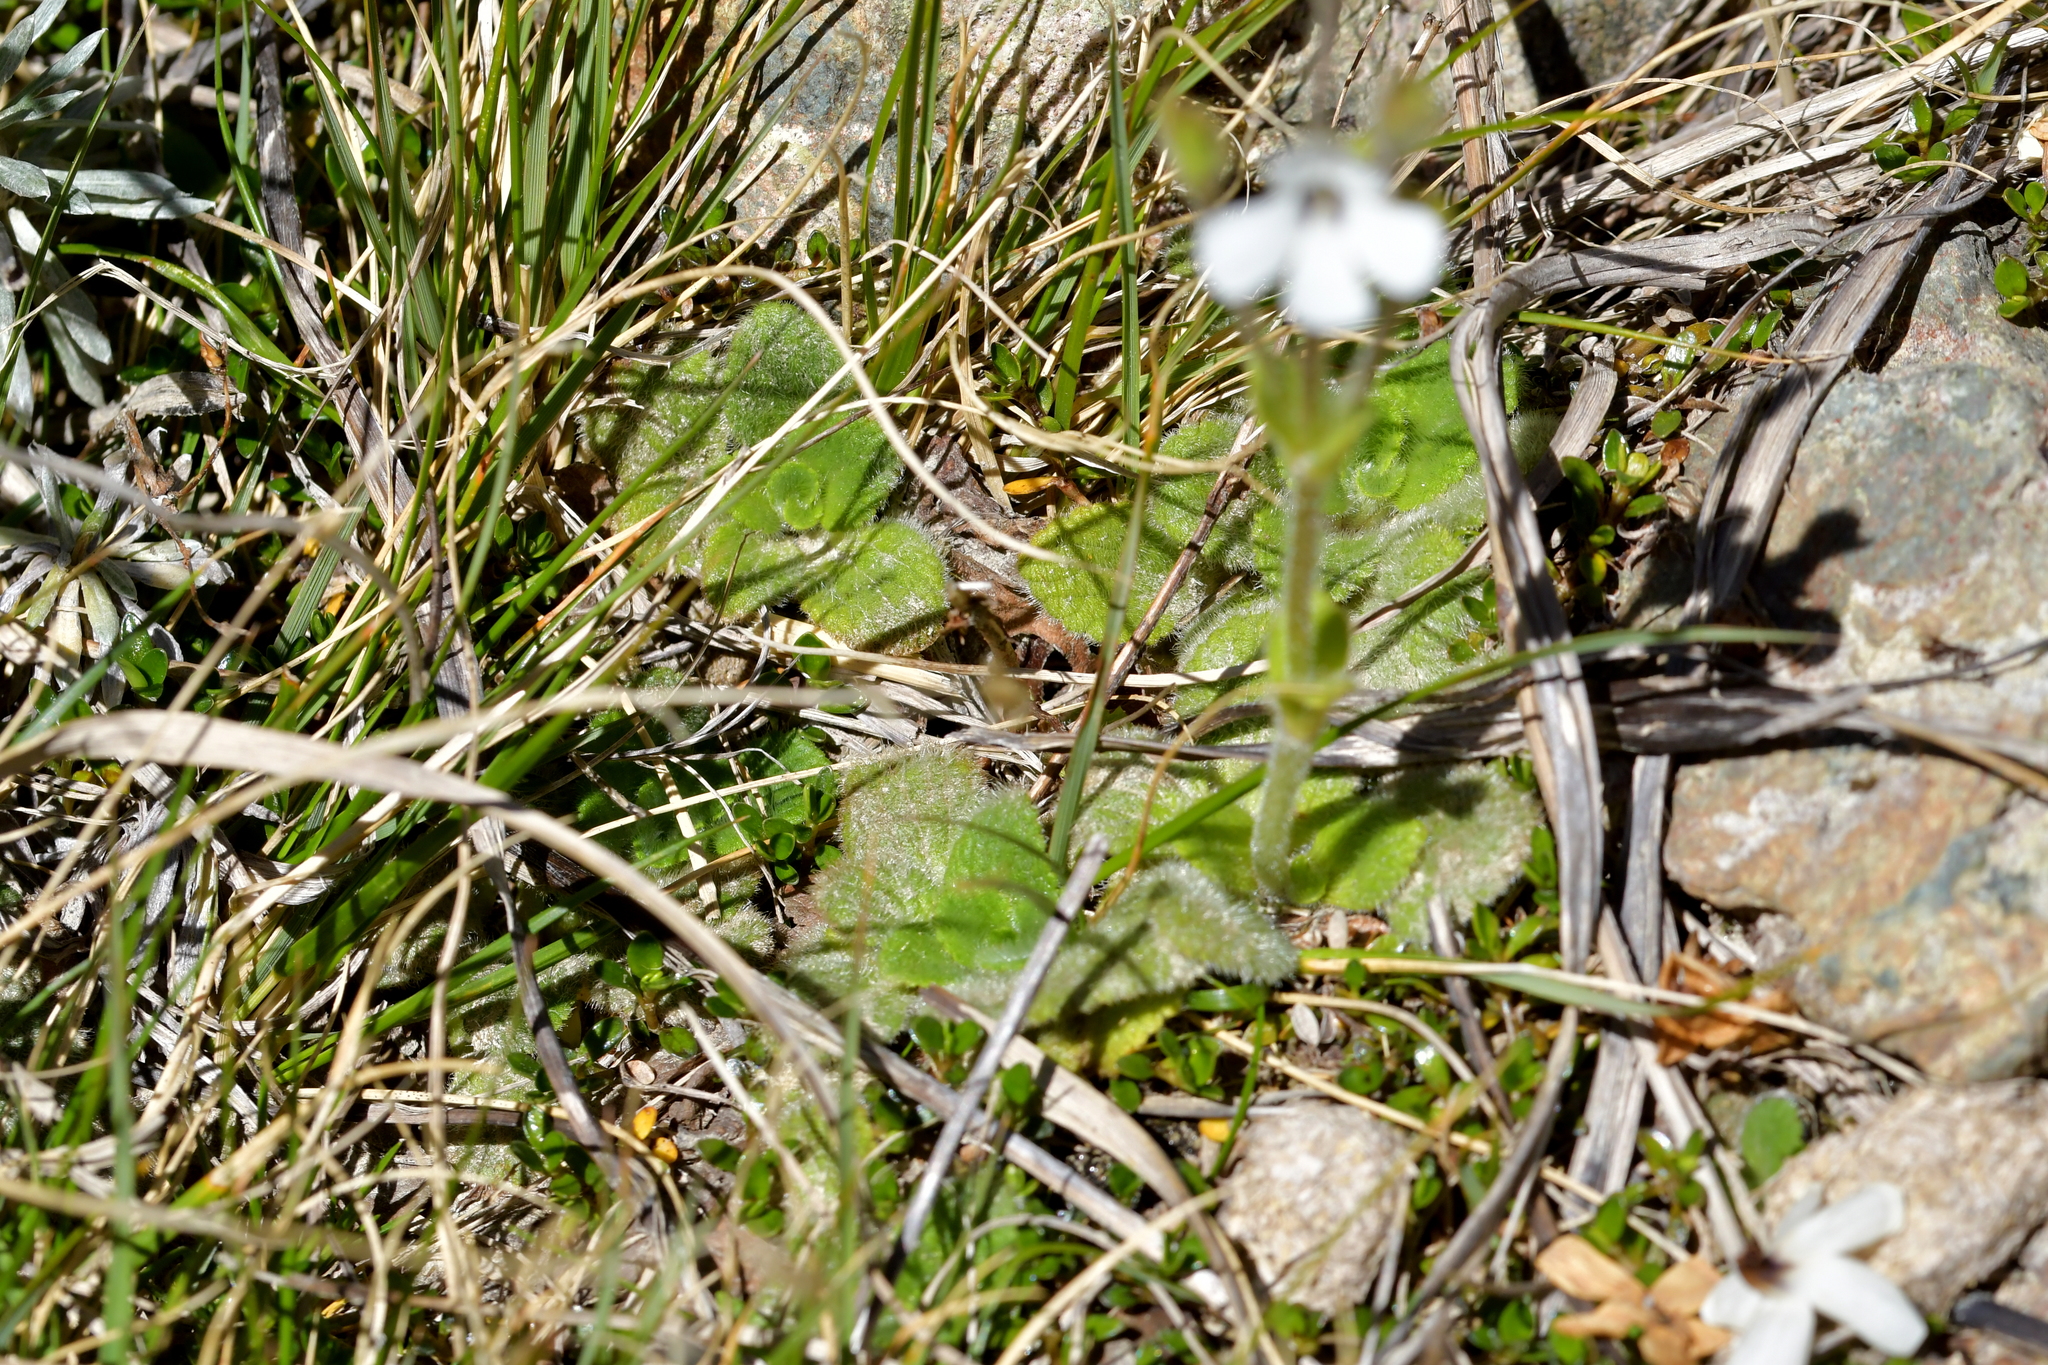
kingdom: Plantae
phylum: Tracheophyta
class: Magnoliopsida
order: Lamiales
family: Plantaginaceae
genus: Ourisia
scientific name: Ourisia remotifolia
